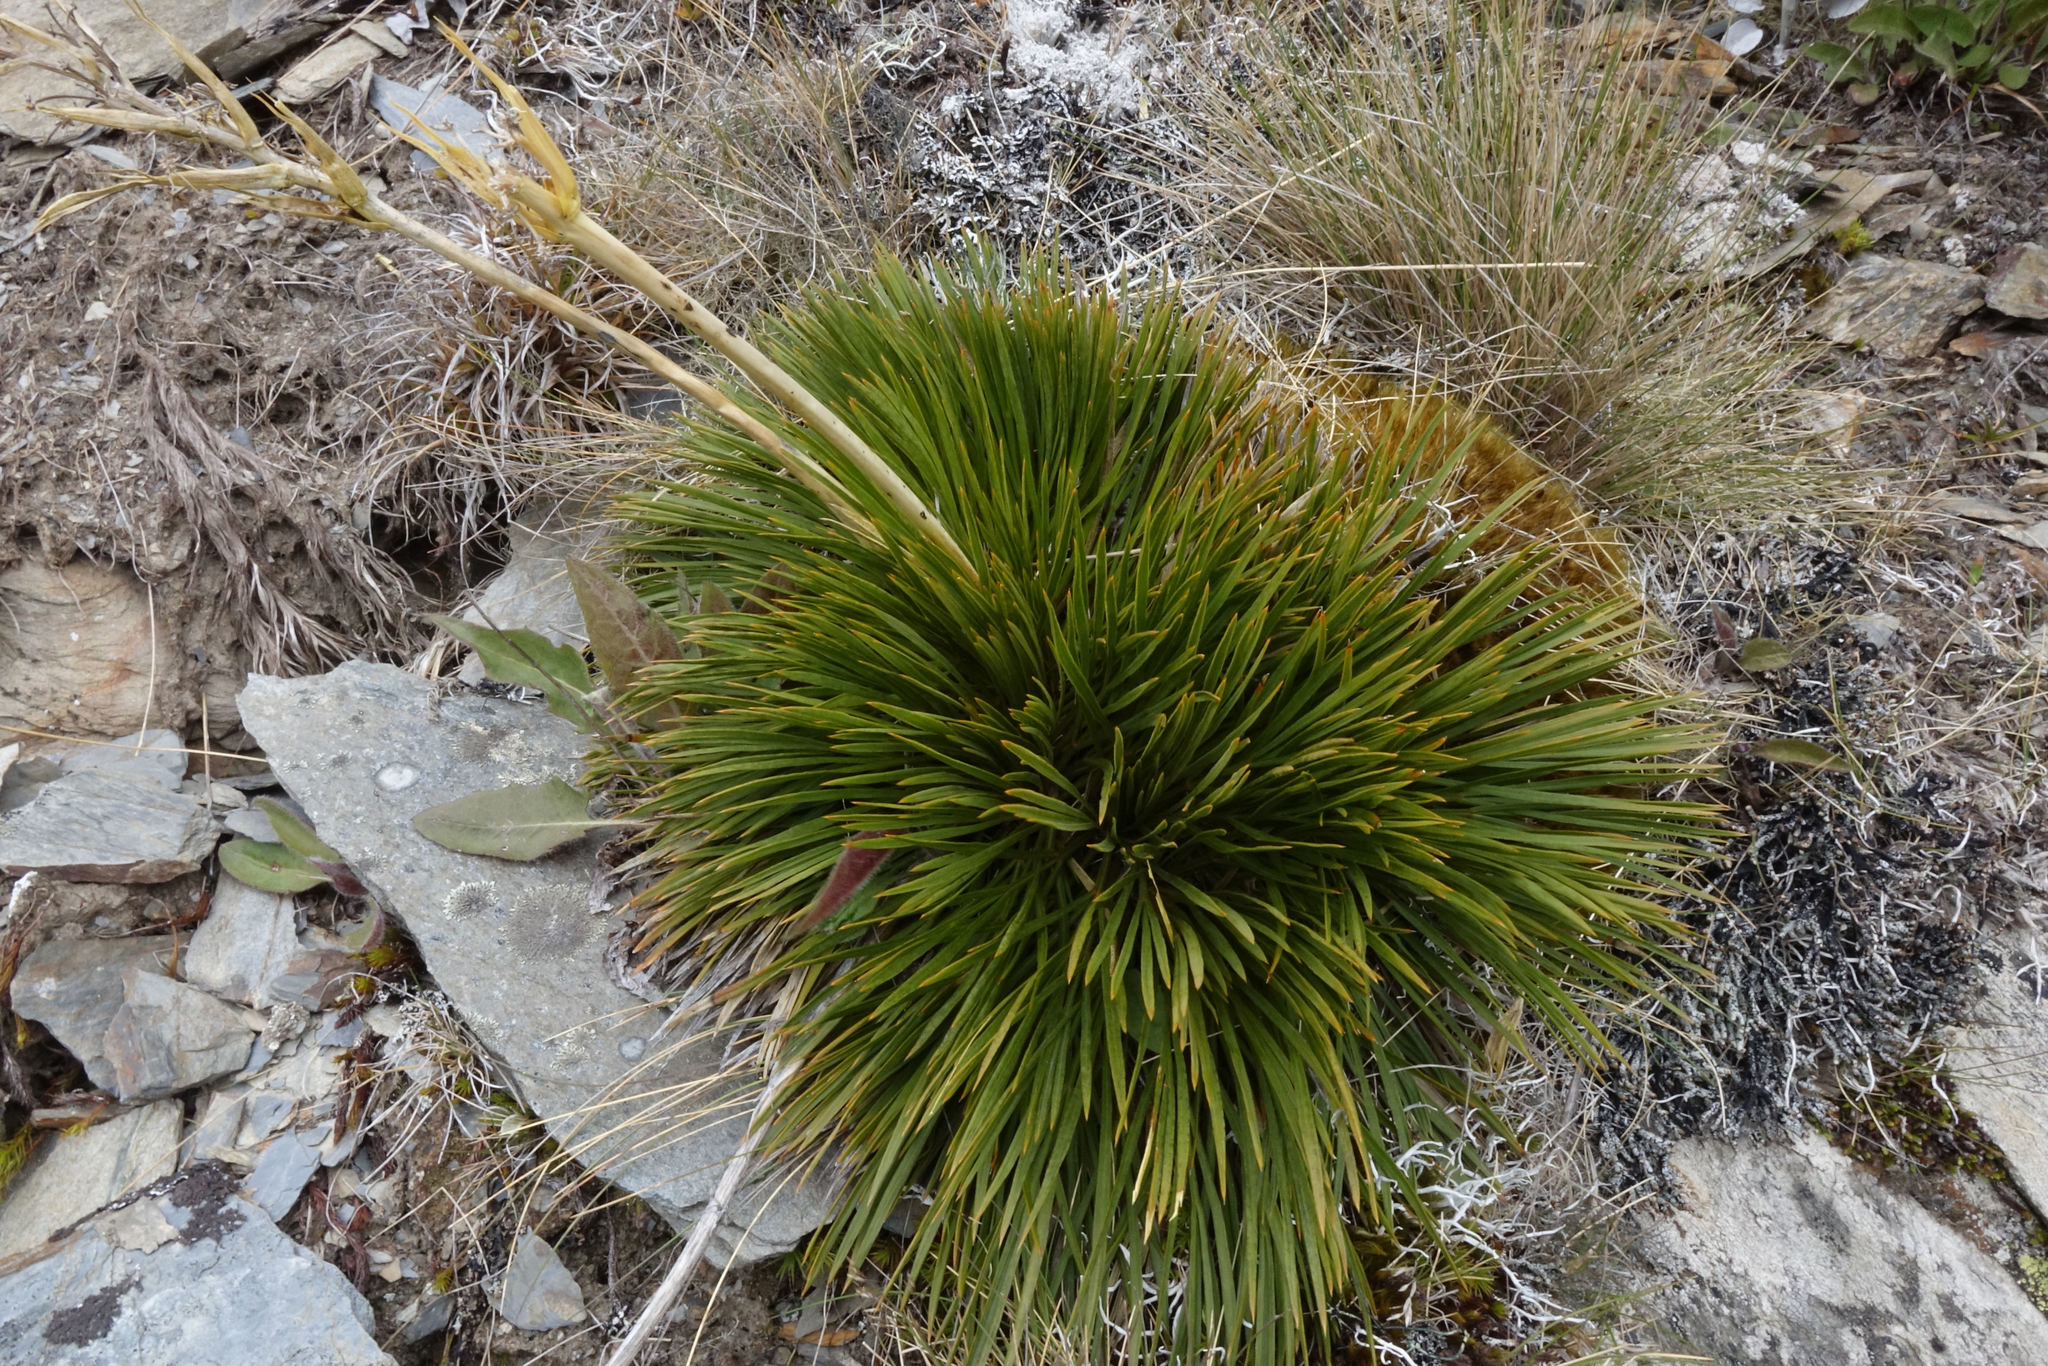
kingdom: Plantae
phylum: Tracheophyta
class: Magnoliopsida
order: Apiales
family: Apiaceae
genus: Aciphylla
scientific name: Aciphylla montana
